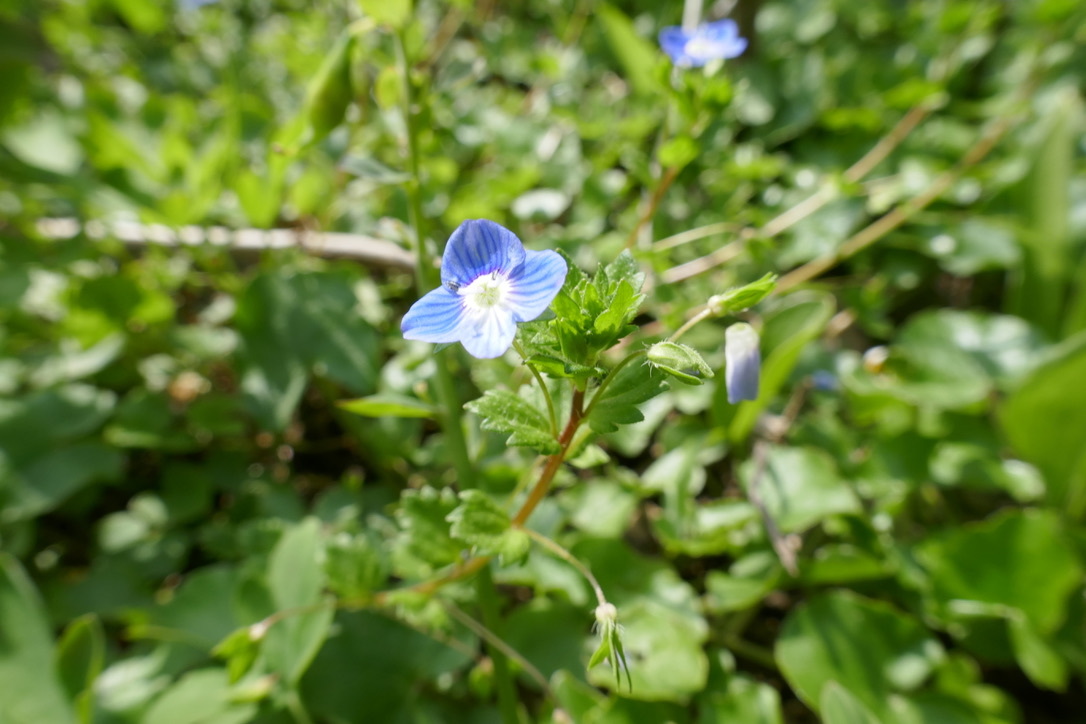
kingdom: Plantae
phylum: Tracheophyta
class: Magnoliopsida
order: Lamiales
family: Plantaginaceae
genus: Veronica
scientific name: Veronica persica
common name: Common field-speedwell
